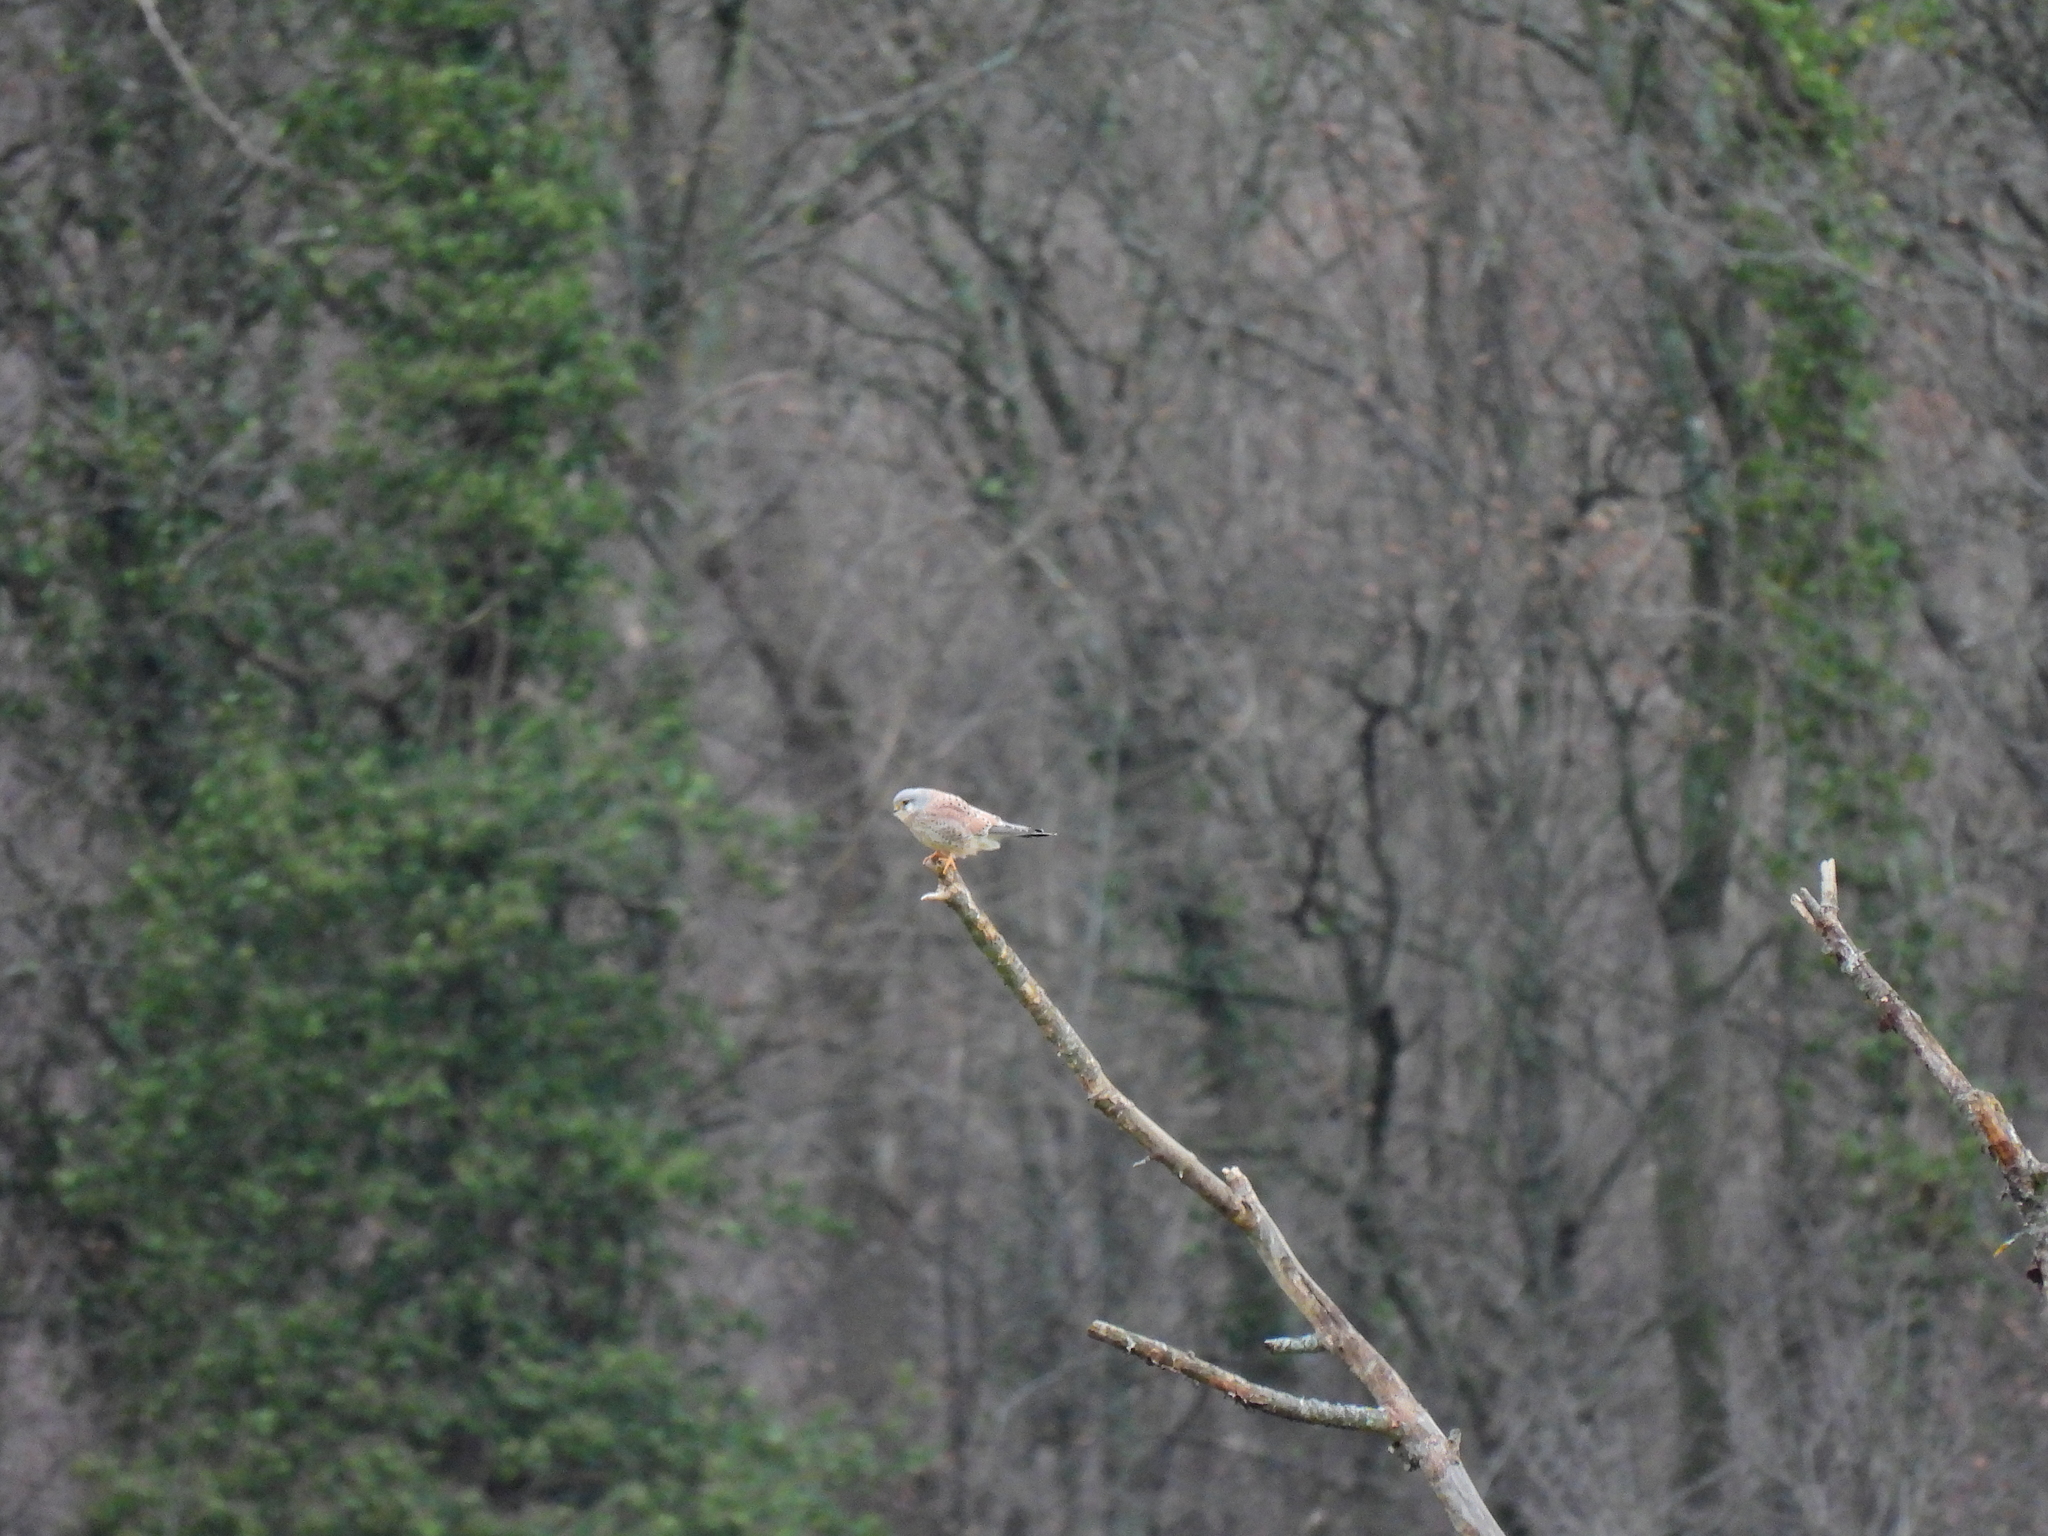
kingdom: Animalia
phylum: Chordata
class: Aves
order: Falconiformes
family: Falconidae
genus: Falco
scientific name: Falco tinnunculus
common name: Common kestrel
